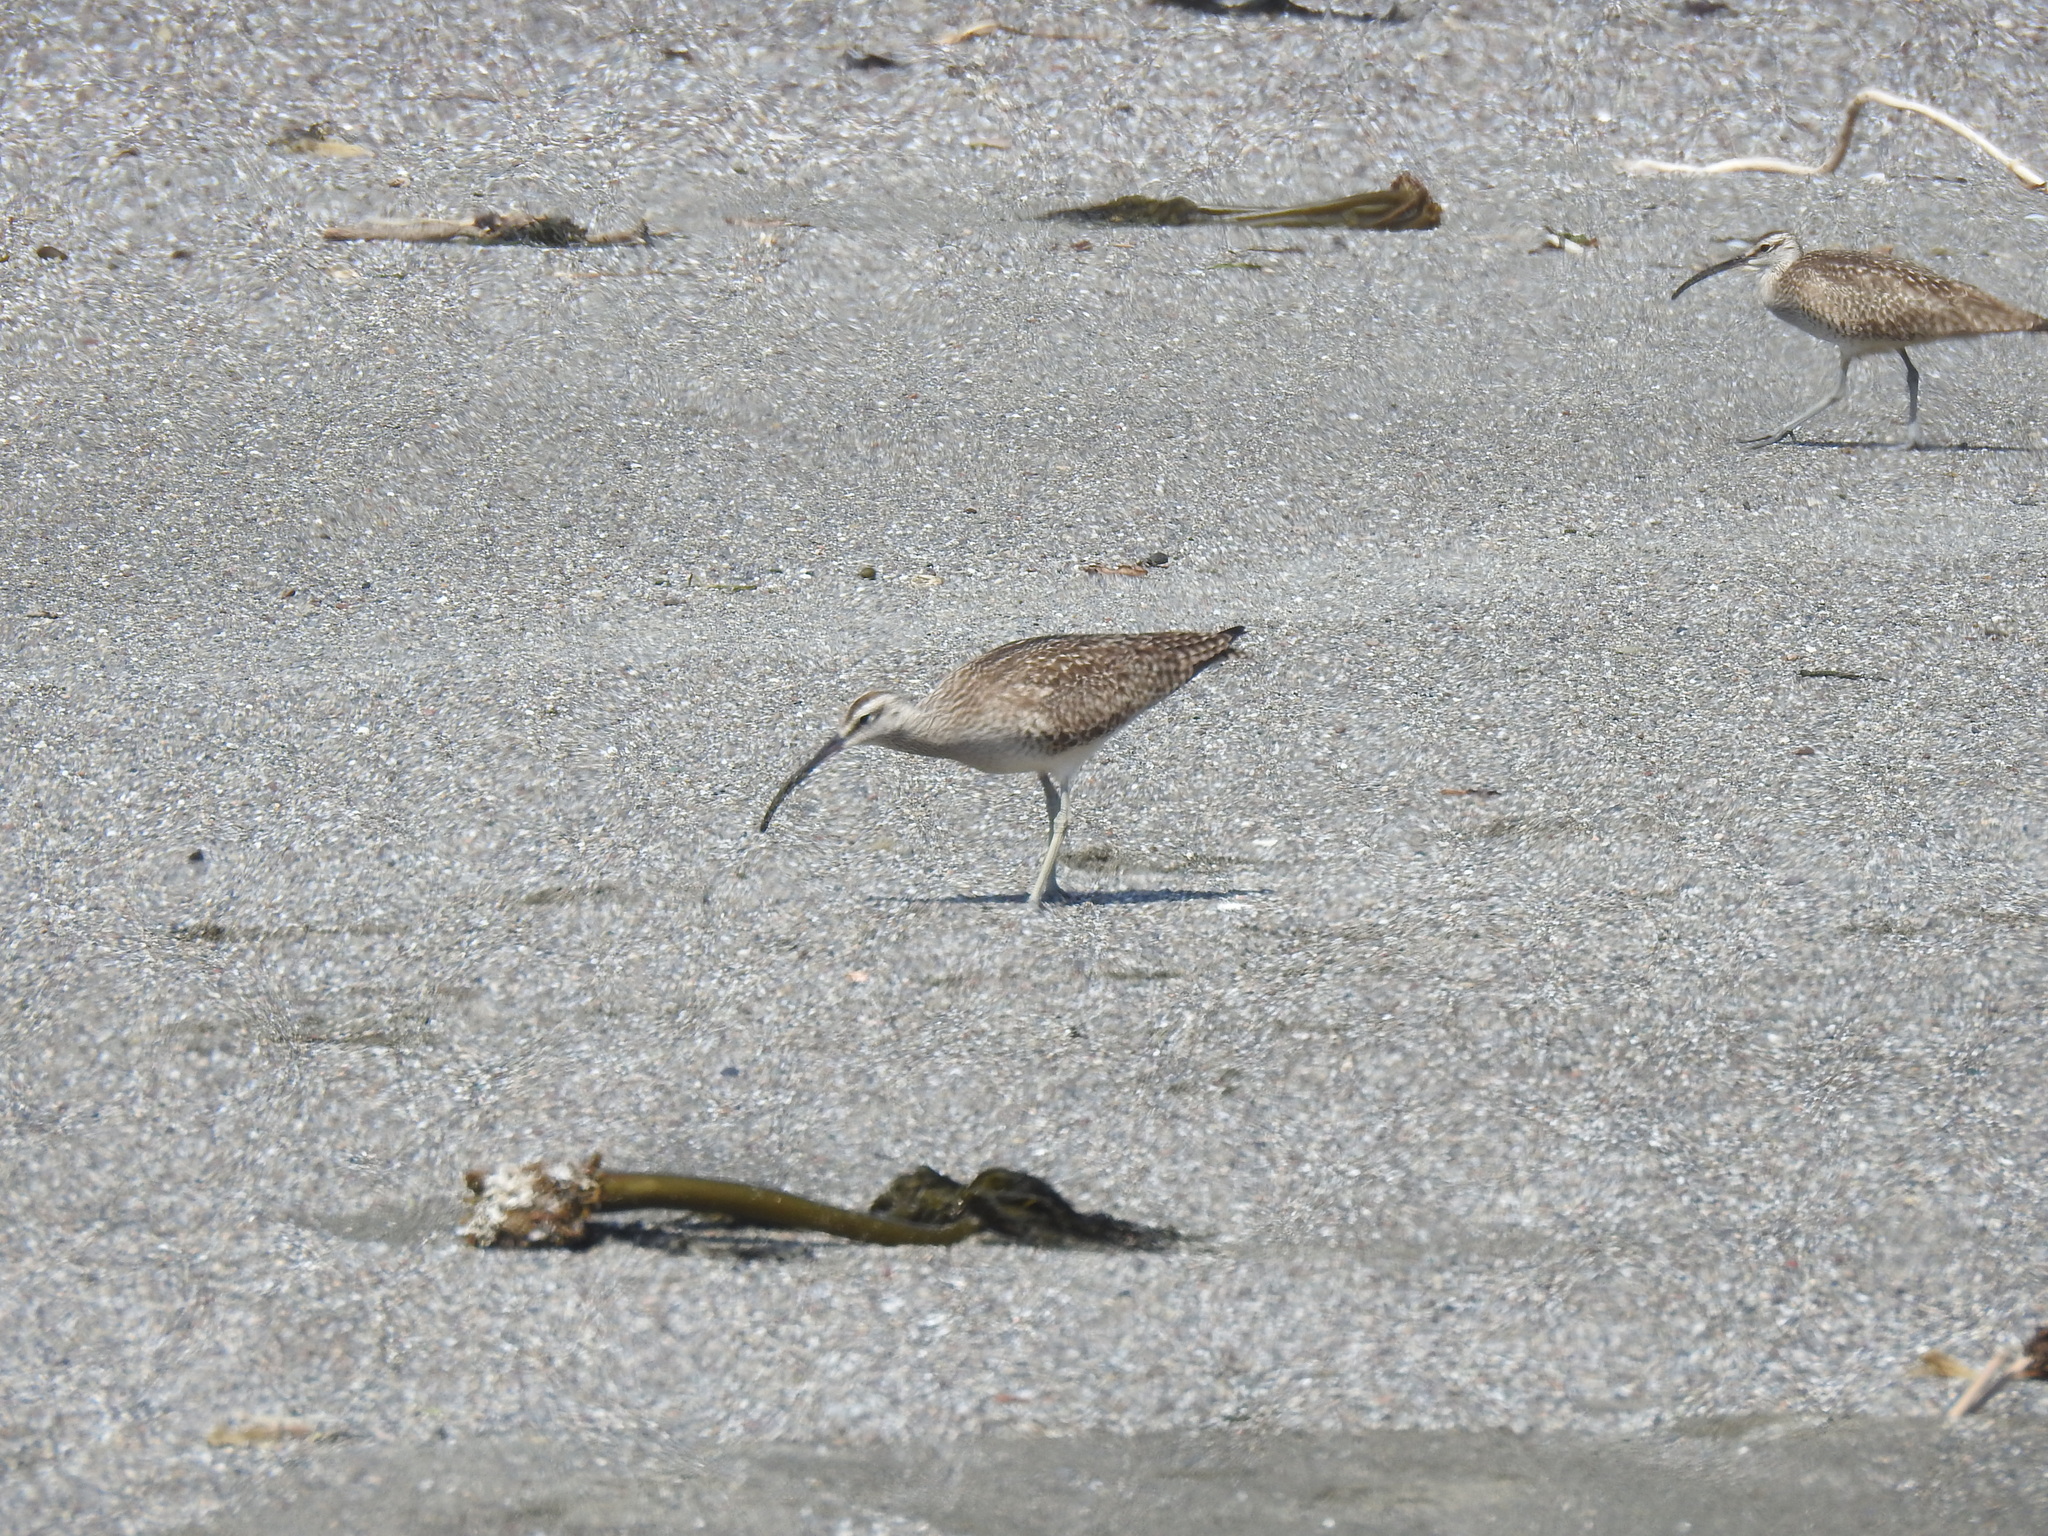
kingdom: Animalia
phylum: Chordata
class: Aves
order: Charadriiformes
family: Scolopacidae
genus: Numenius
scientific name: Numenius phaeopus
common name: Whimbrel
